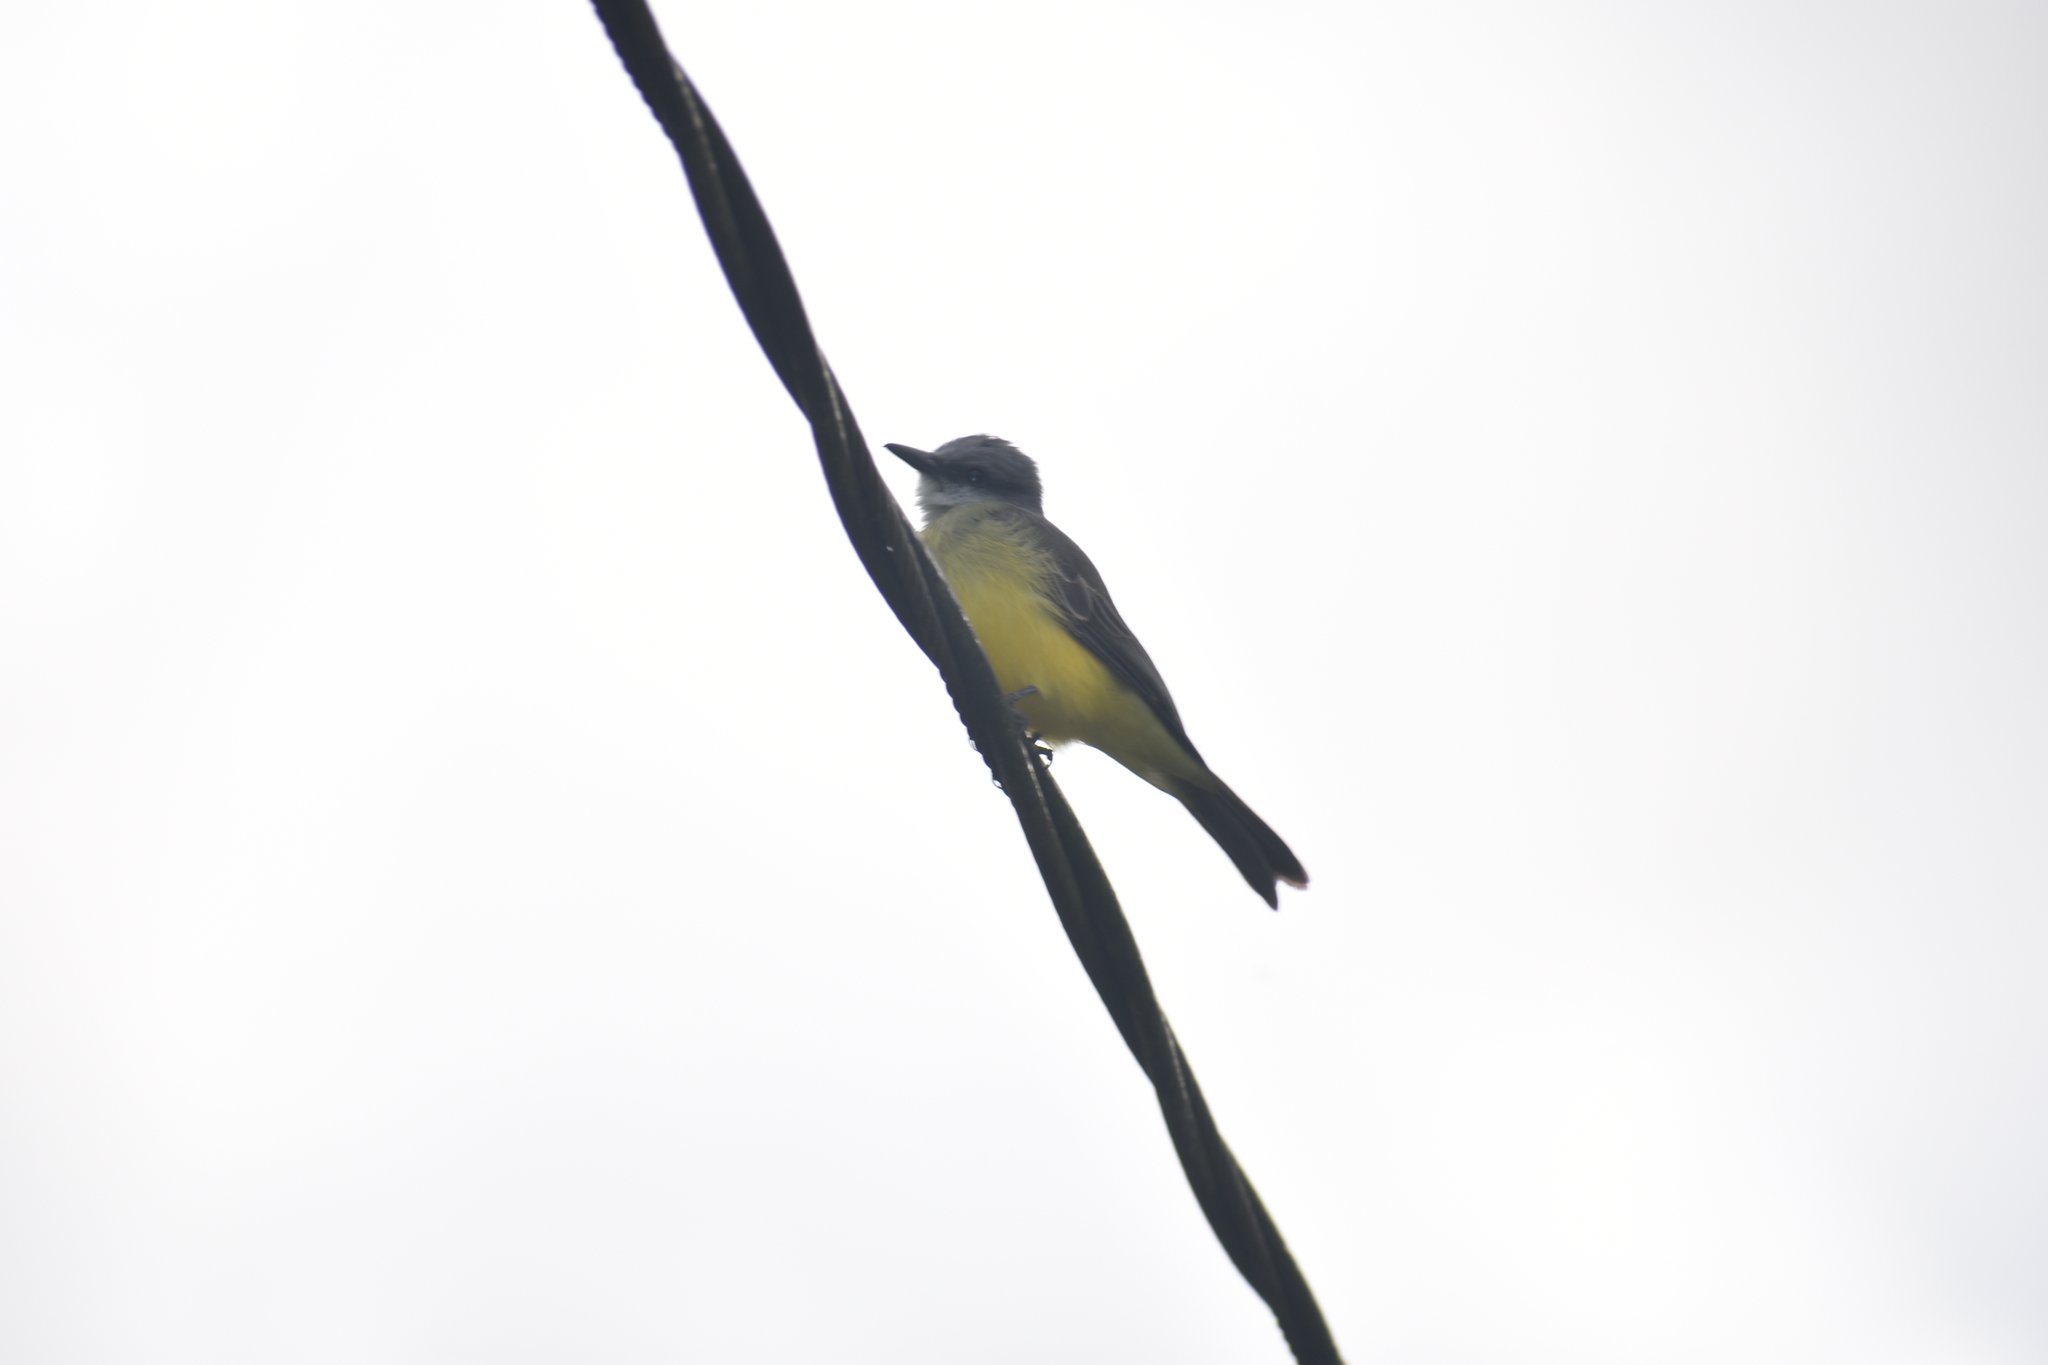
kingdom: Animalia
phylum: Chordata
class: Aves
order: Passeriformes
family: Tyrannidae
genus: Tyrannus
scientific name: Tyrannus melancholicus
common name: Tropical kingbird
